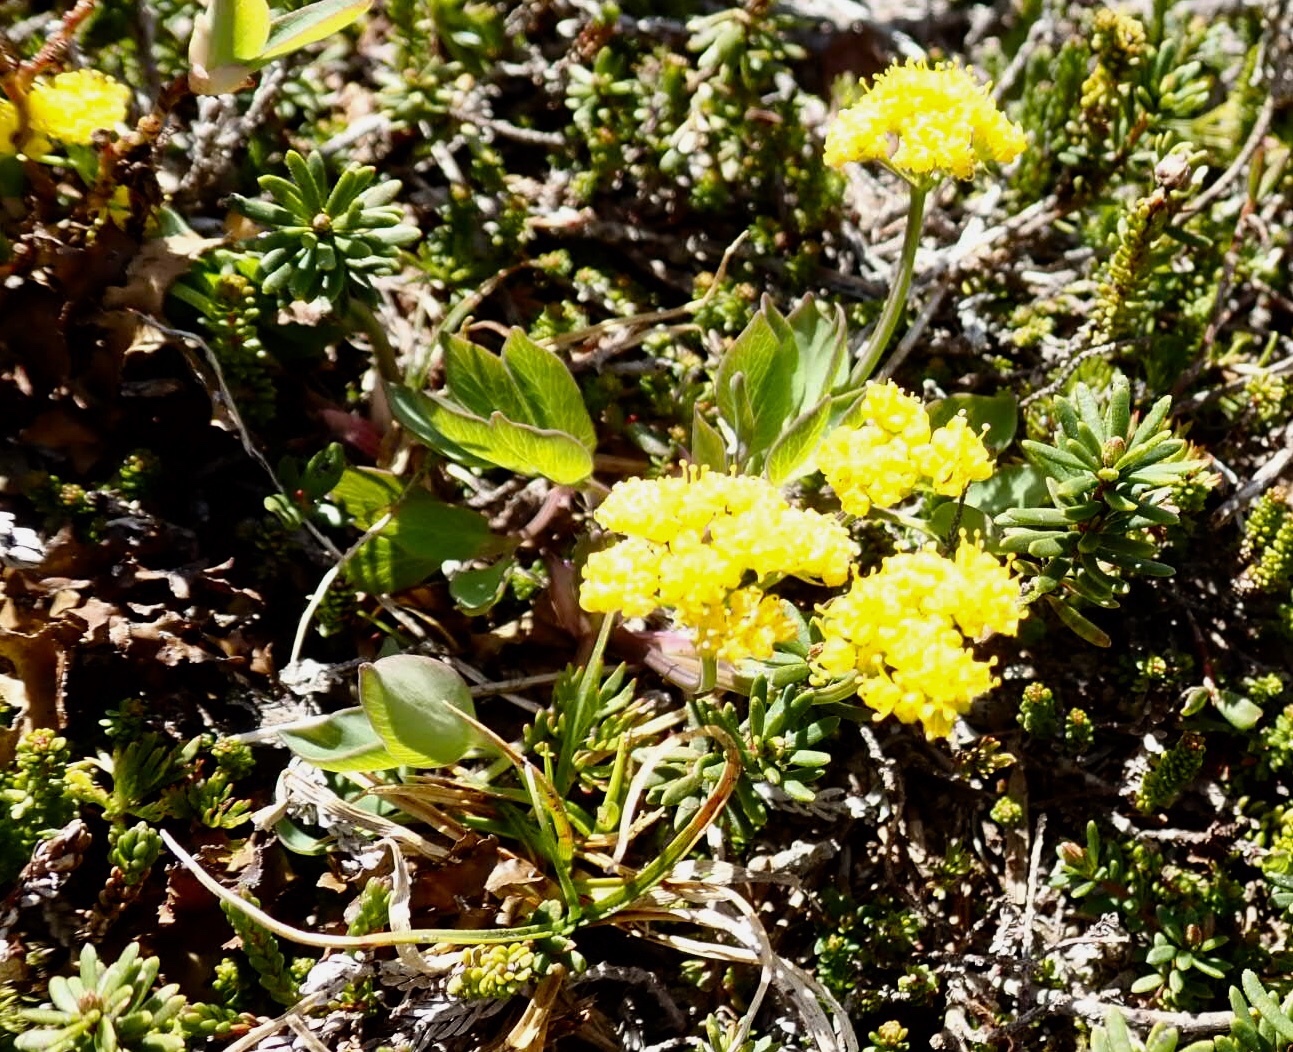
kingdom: Plantae
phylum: Tracheophyta
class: Magnoliopsida
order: Apiales
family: Apiaceae
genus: Tauschia
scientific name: Tauschia stricklandii
